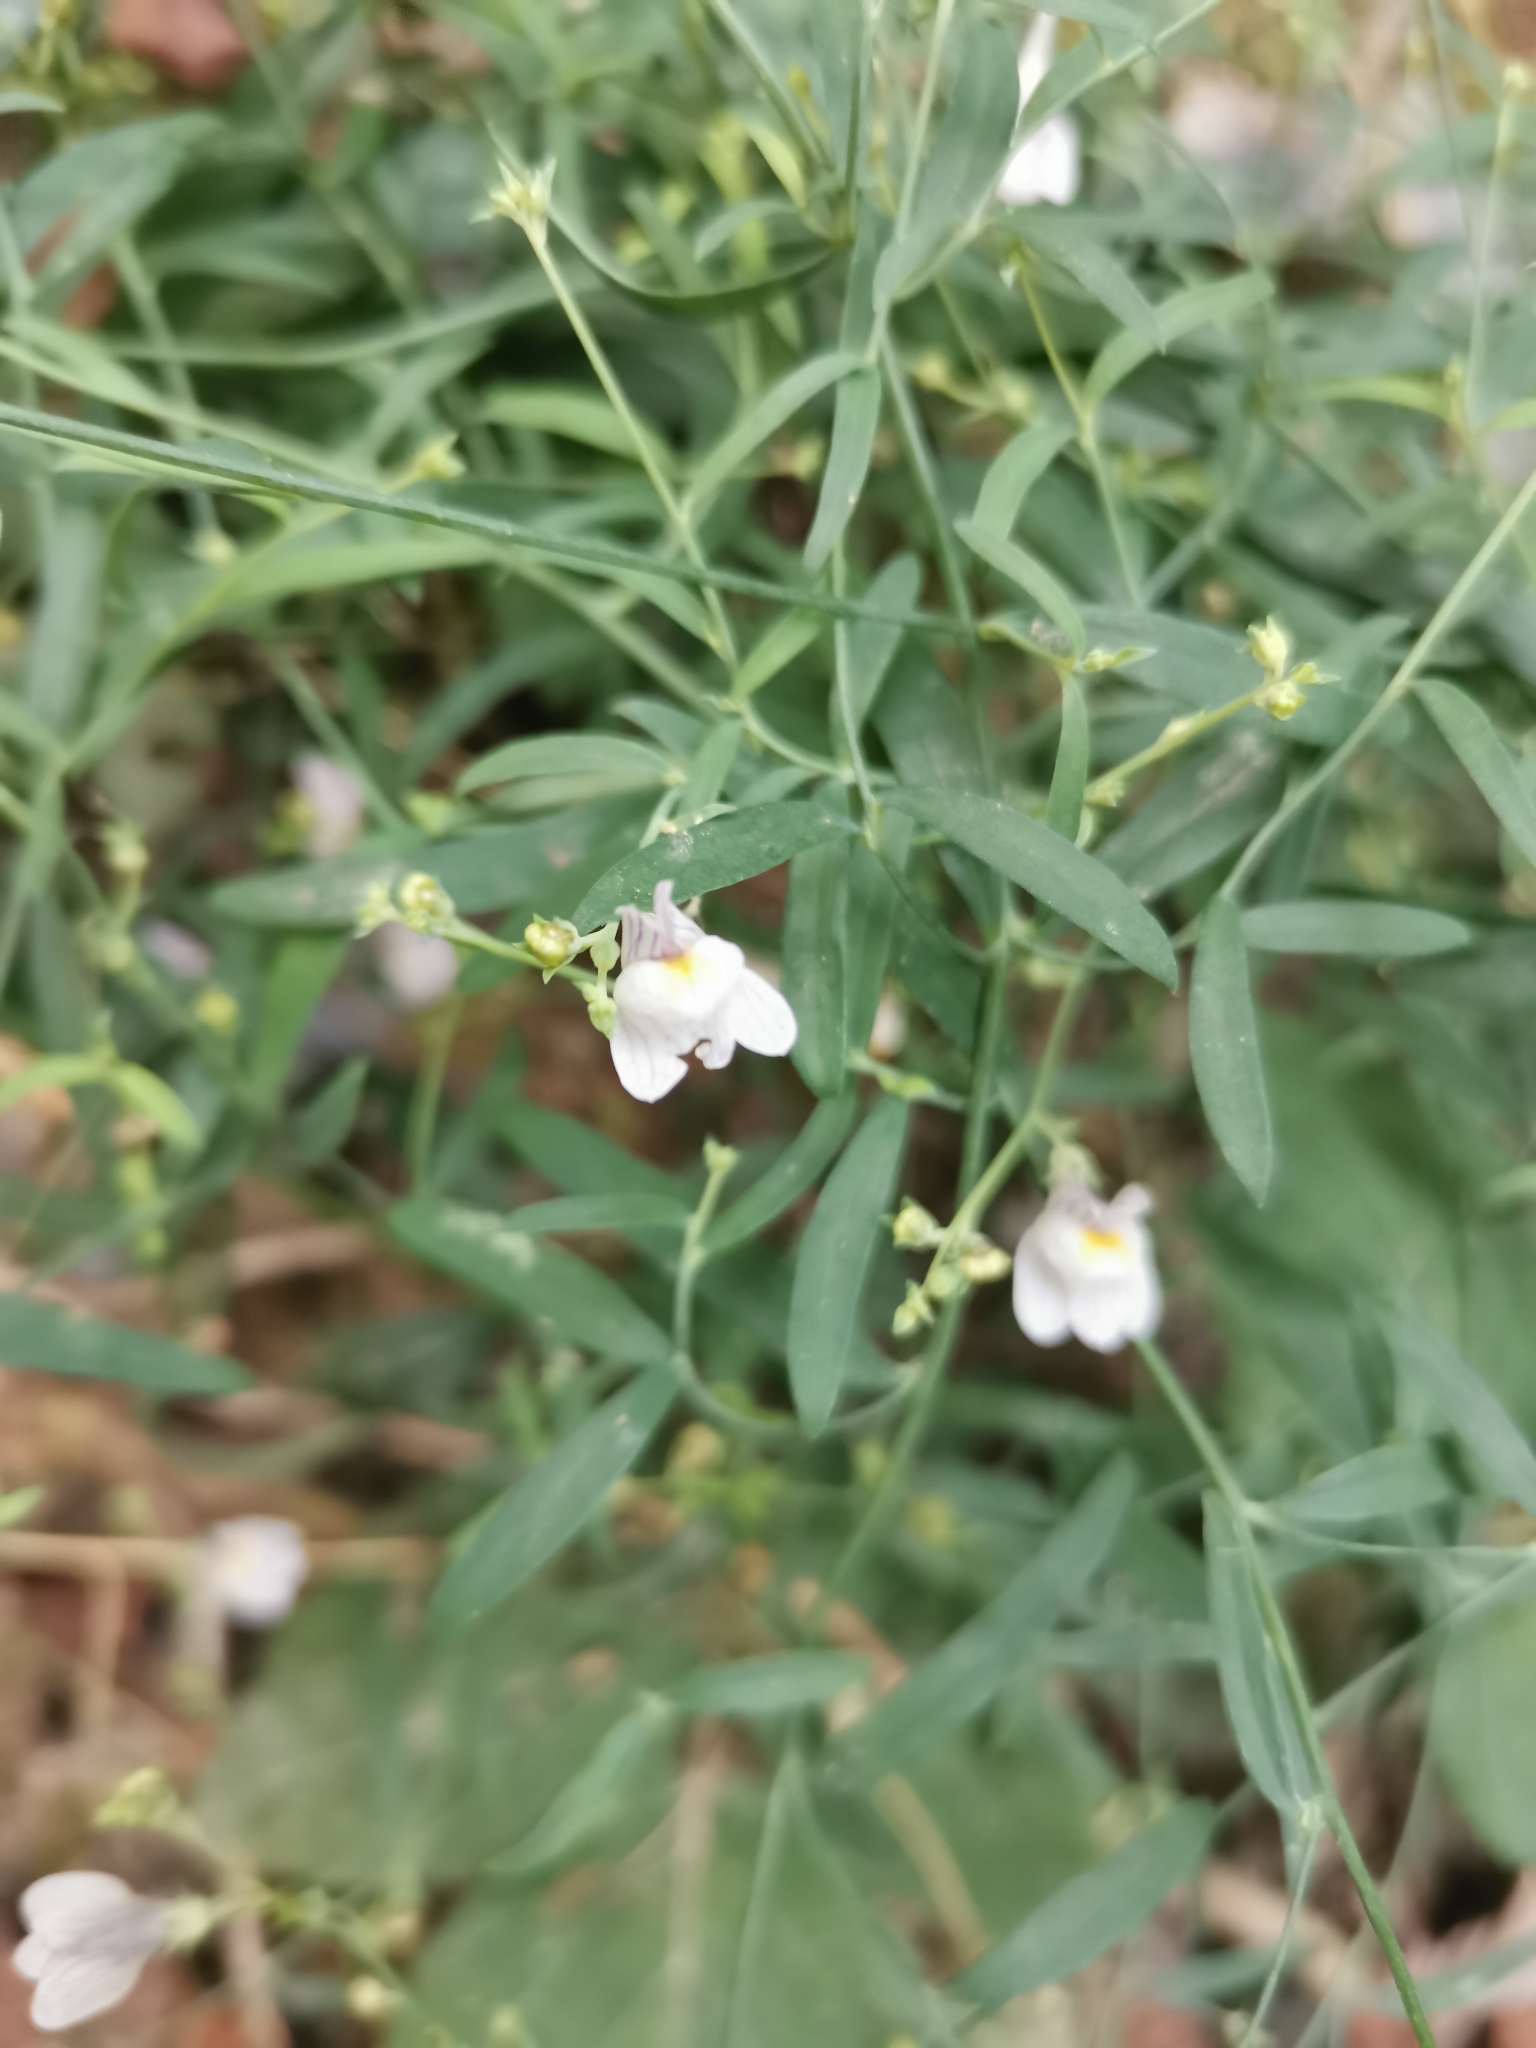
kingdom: Plantae
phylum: Tracheophyta
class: Magnoliopsida
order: Lamiales
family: Plantaginaceae
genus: Linaria
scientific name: Linaria repens
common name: Pale toadflax
